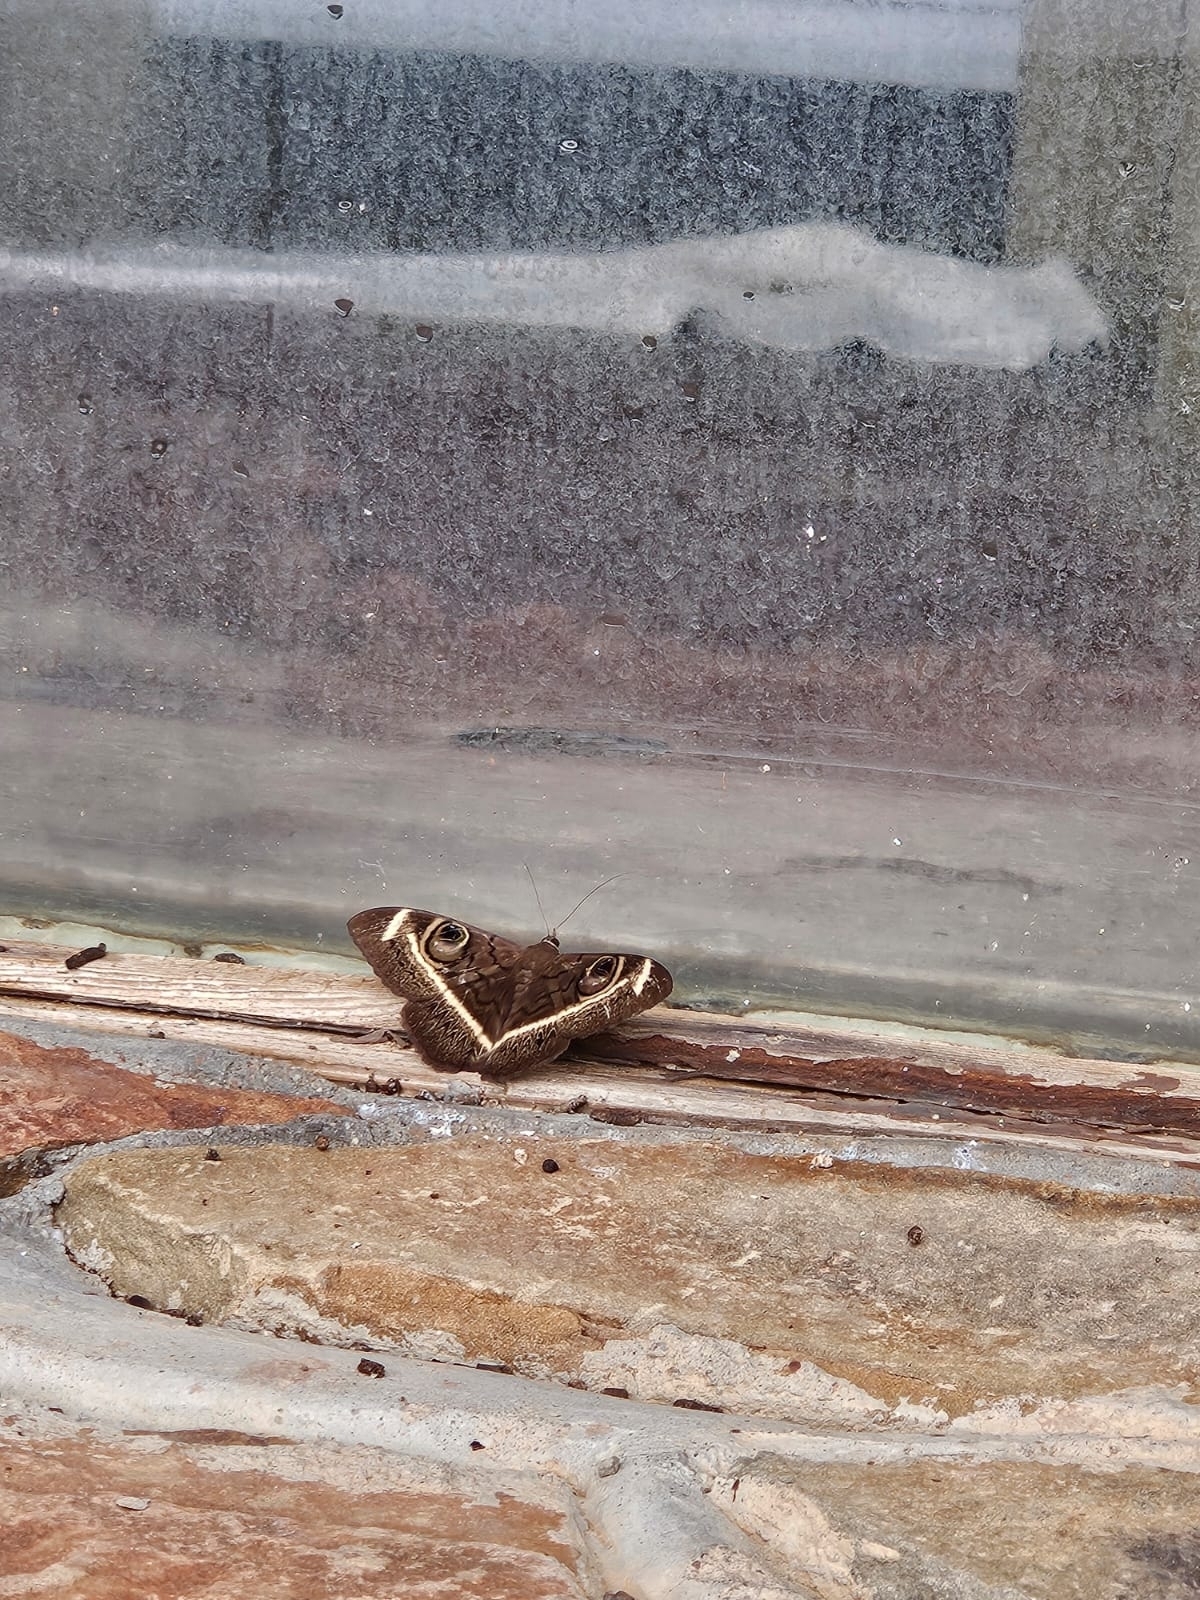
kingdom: Animalia
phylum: Arthropoda
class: Insecta
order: Lepidoptera
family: Erebidae
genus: Cyligramma
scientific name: Cyligramma latona
